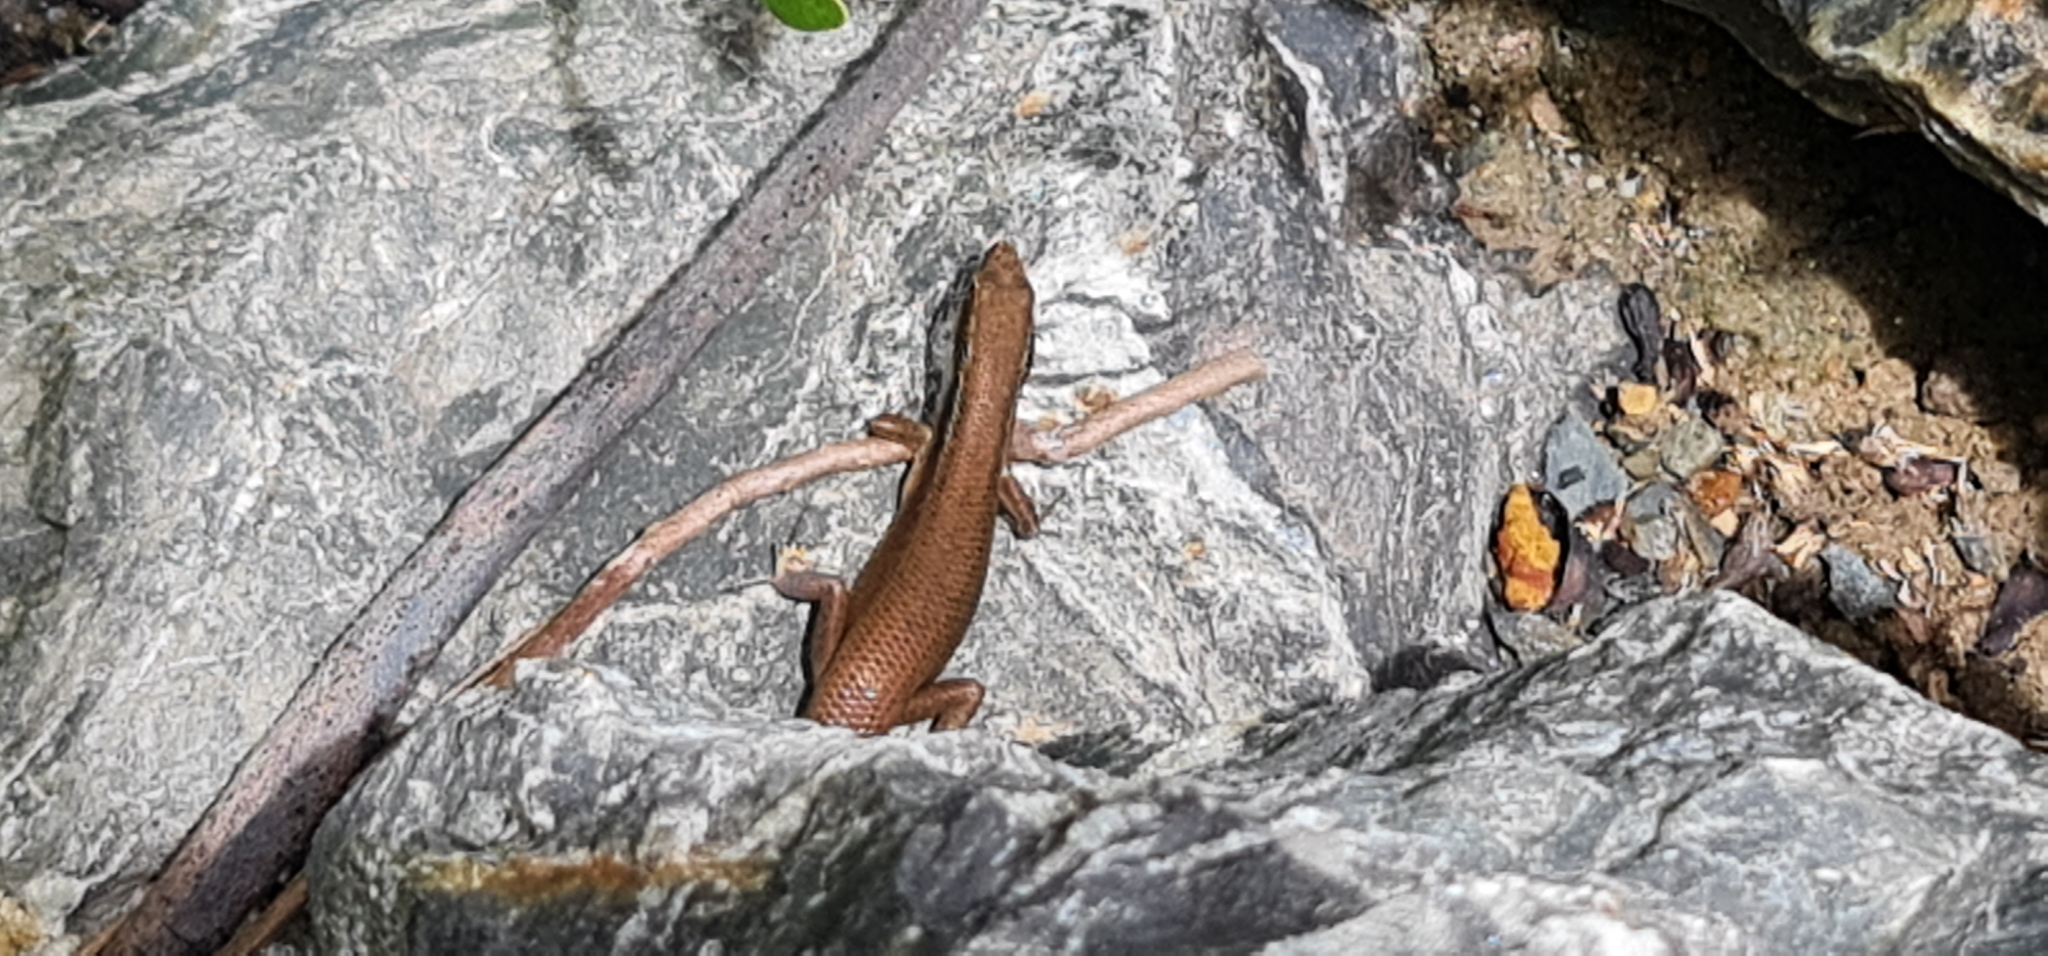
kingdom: Animalia
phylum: Chordata
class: Squamata
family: Scincidae
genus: Carlia
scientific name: Carlia longipes
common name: Closed-litter rainbow-skink
